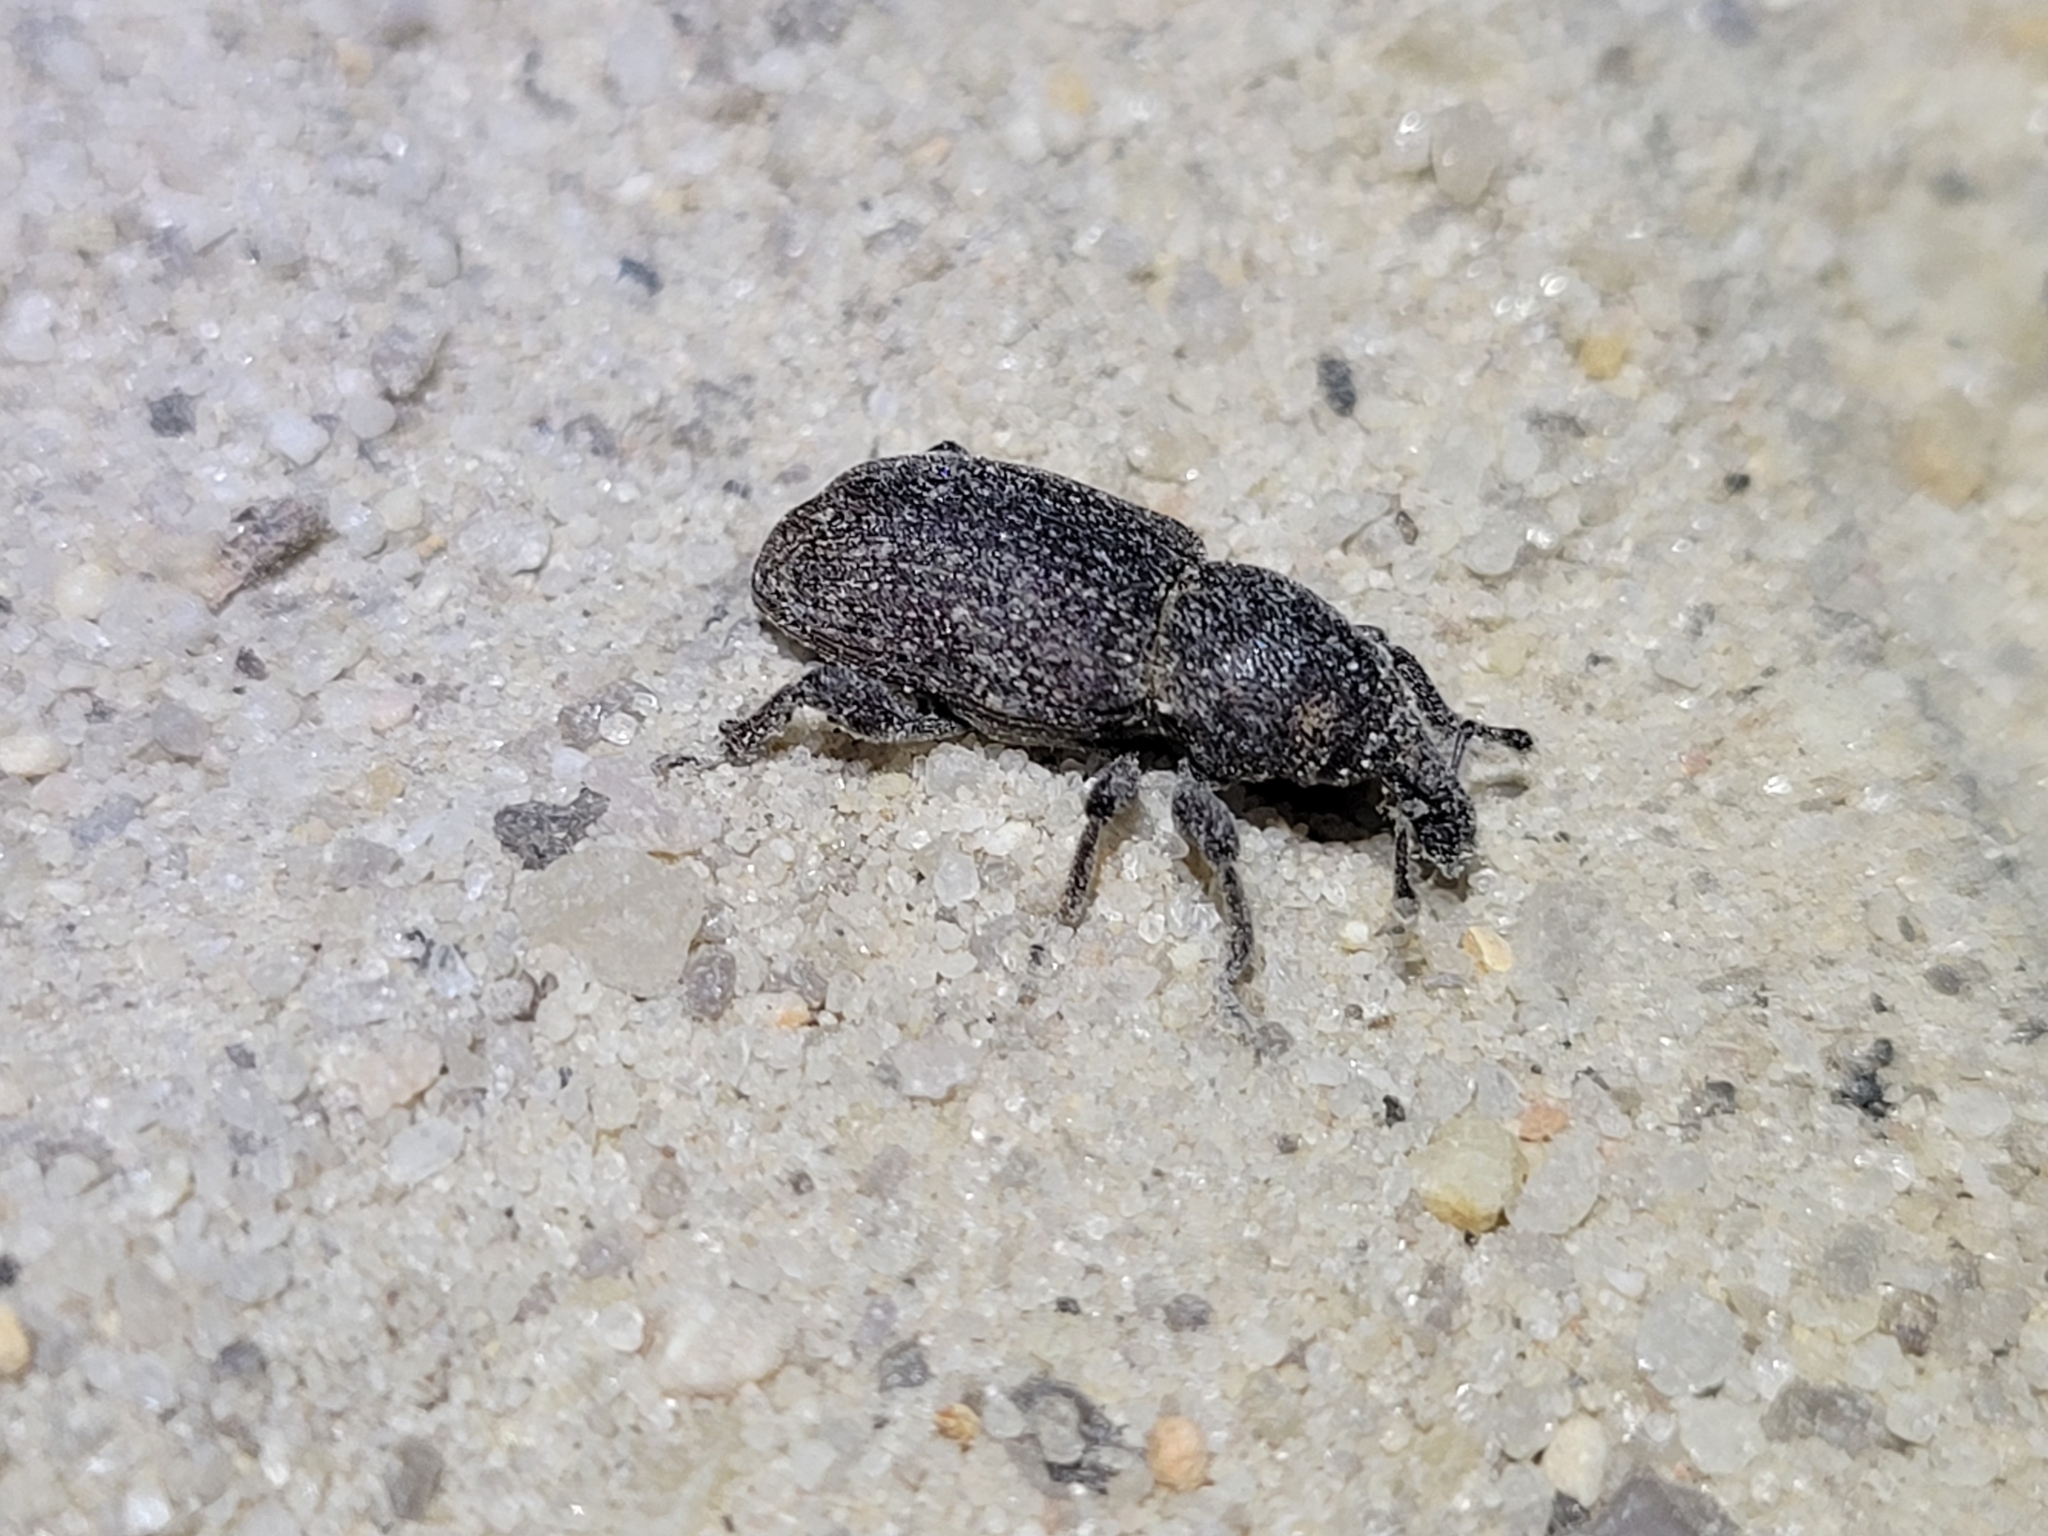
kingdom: Animalia
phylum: Arthropoda
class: Insecta
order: Coleoptera
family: Curculionidae
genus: Pachylobius
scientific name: Pachylobius picivorus
